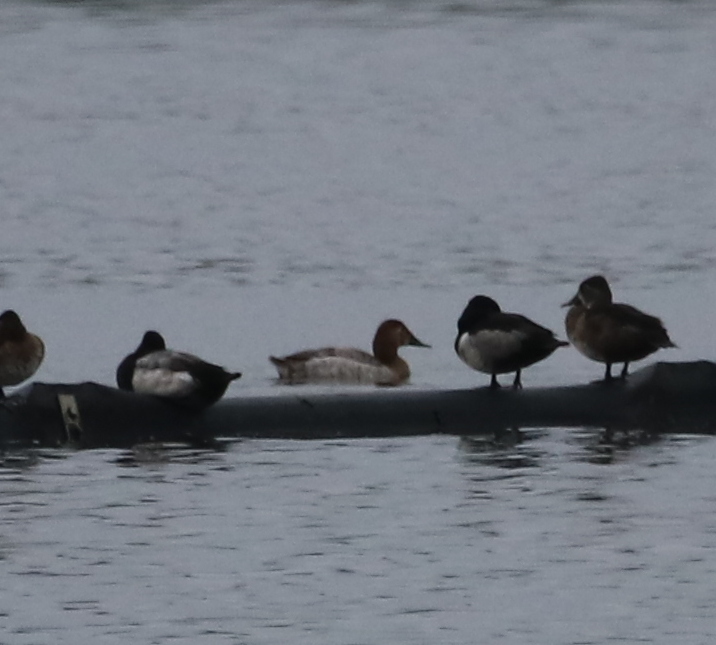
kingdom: Animalia
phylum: Chordata
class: Aves
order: Anseriformes
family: Anatidae
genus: Aythya
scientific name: Aythya valisineria
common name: Canvasback
